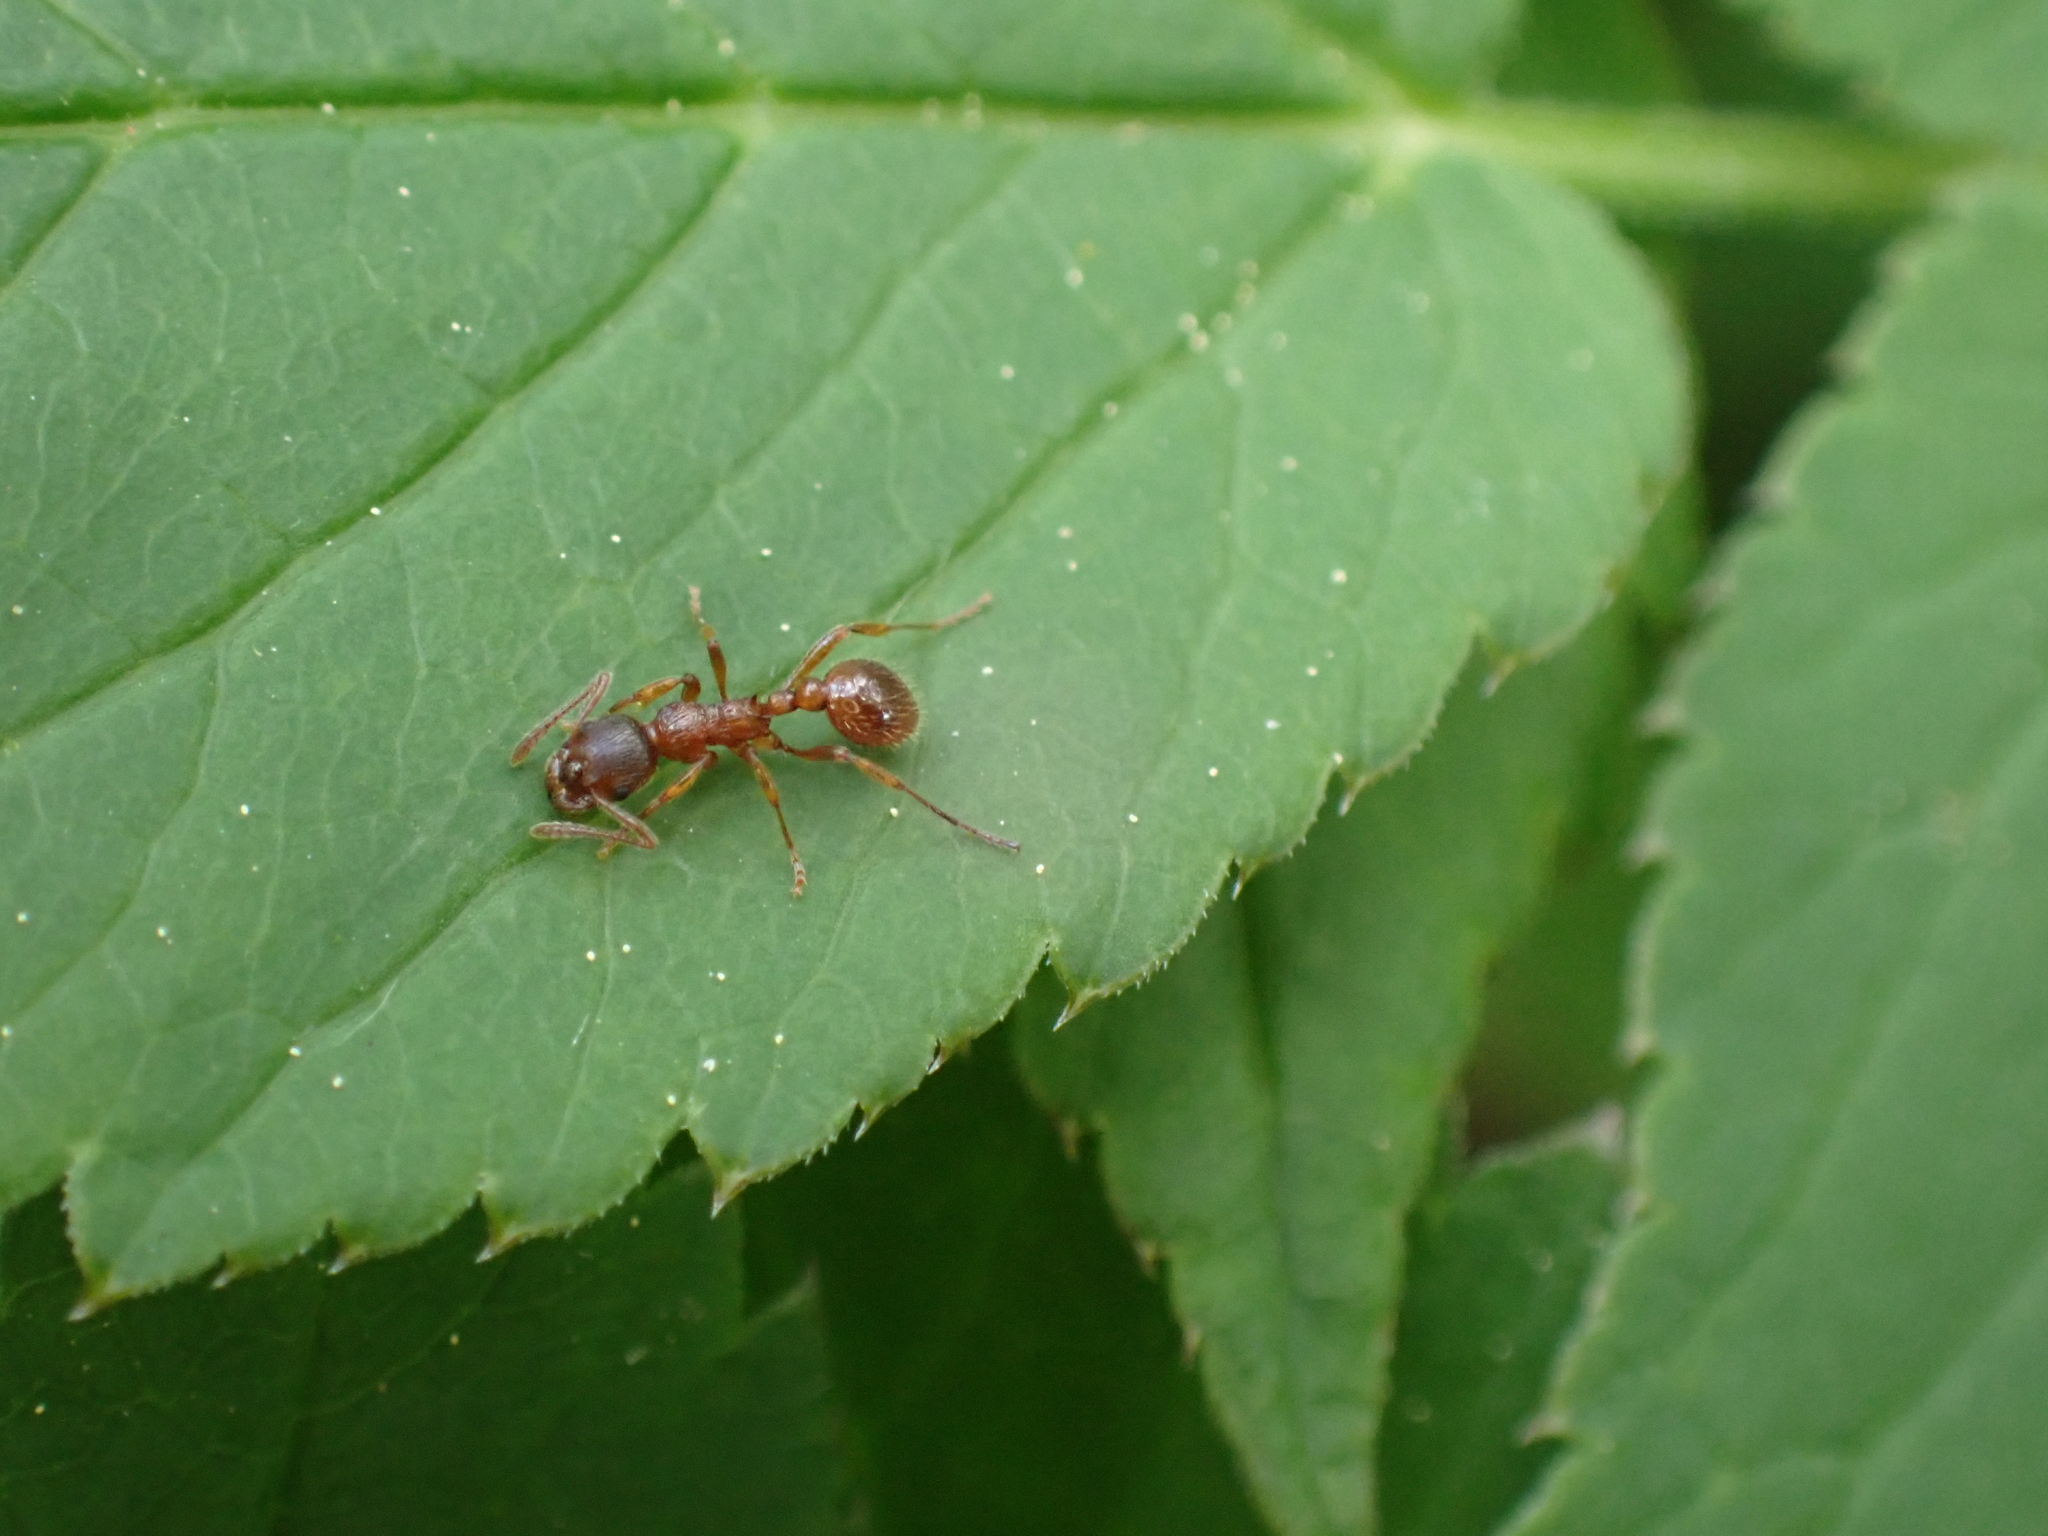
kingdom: Animalia
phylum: Arthropoda
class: Insecta
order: Hymenoptera
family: Formicidae
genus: Myrmica
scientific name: Myrmica
